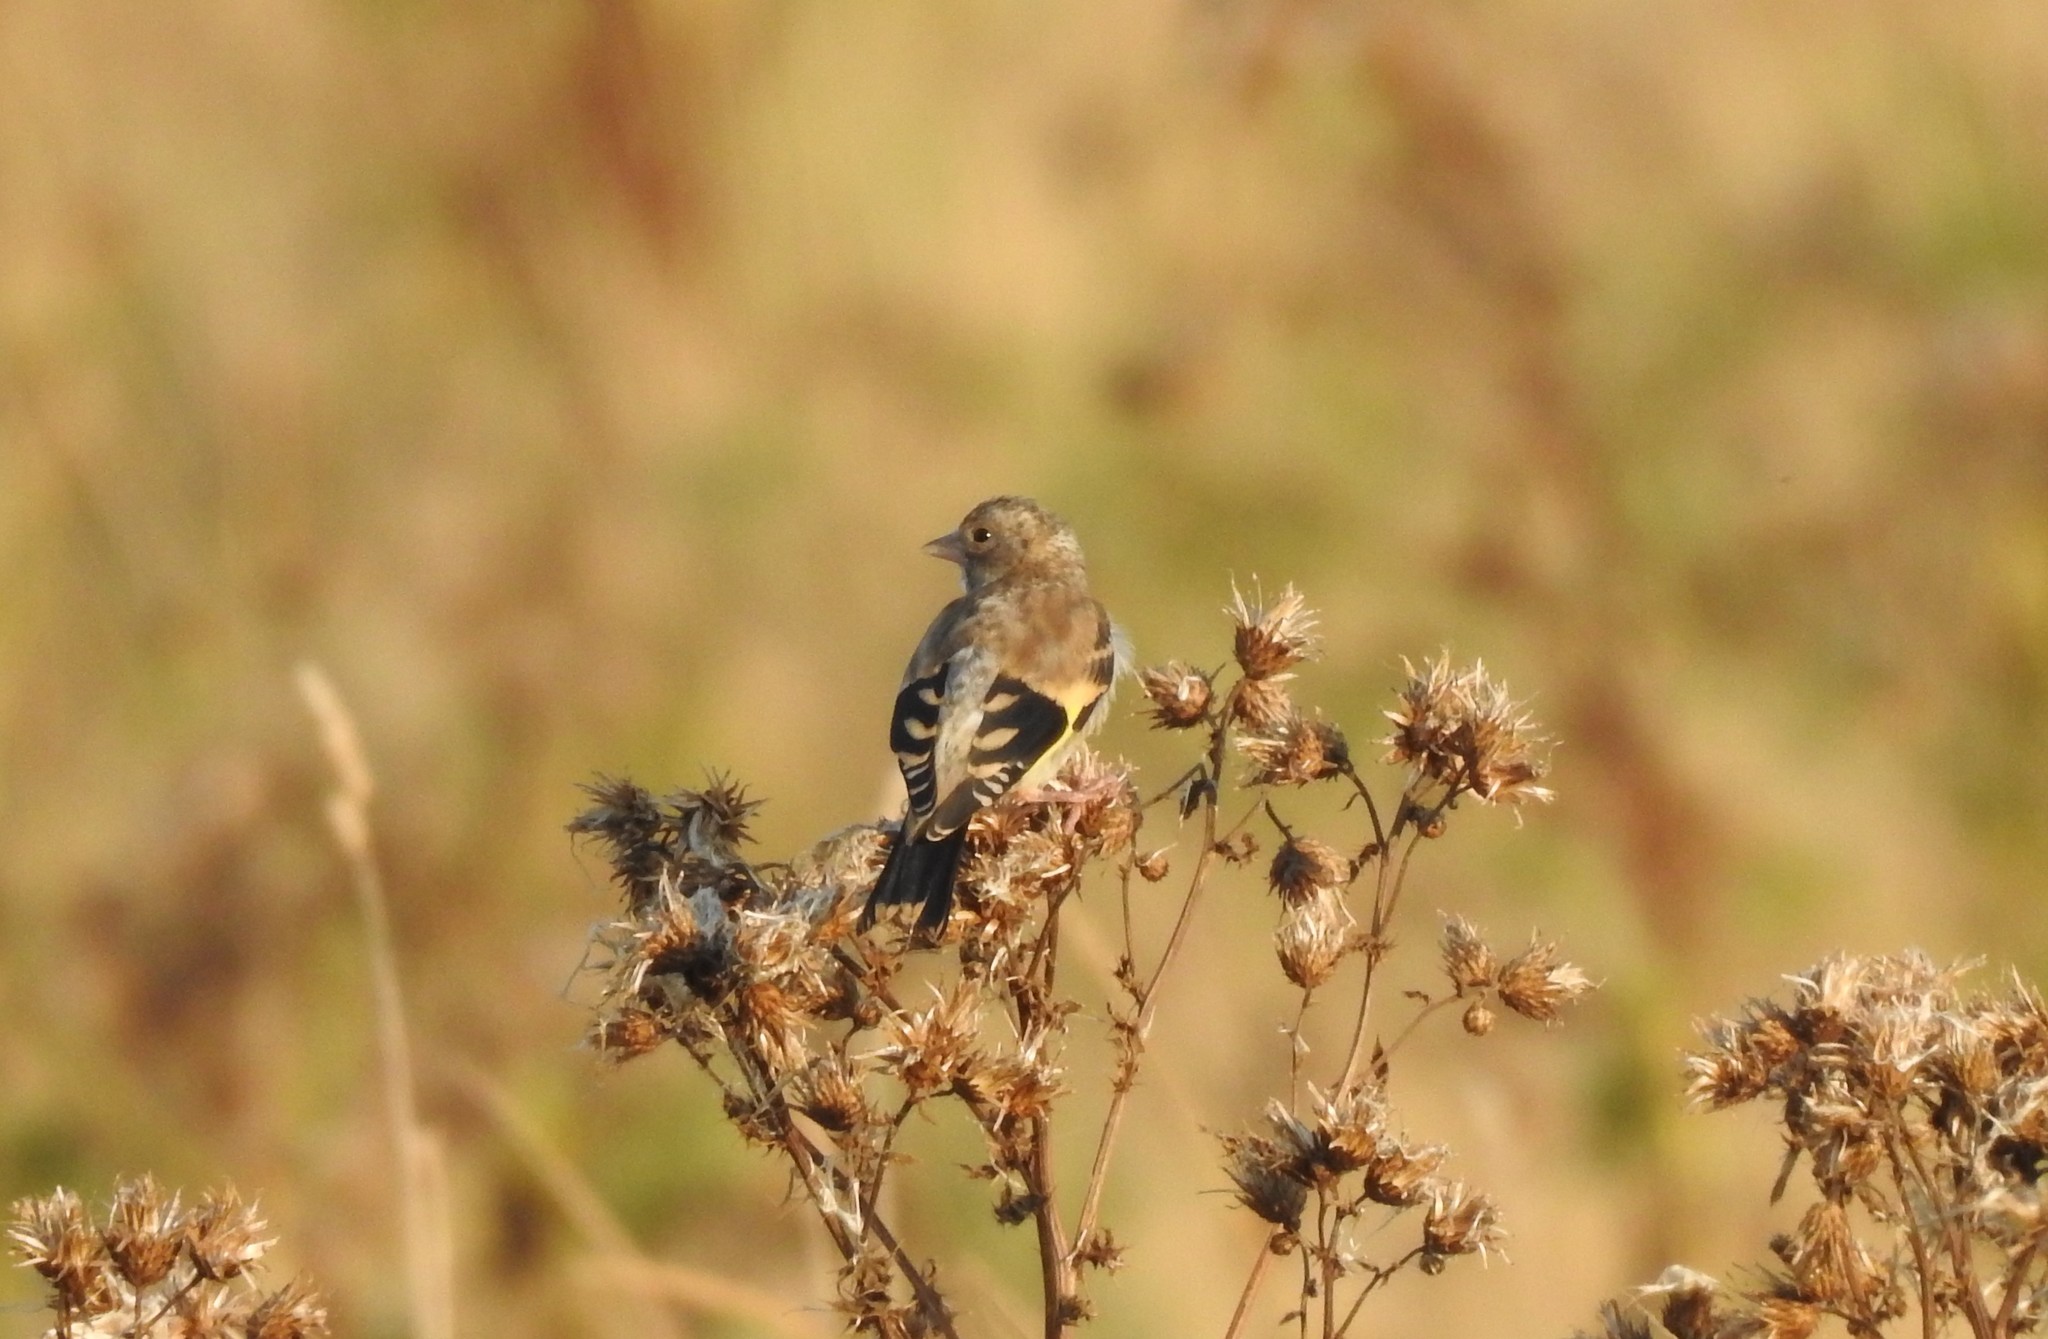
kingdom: Animalia
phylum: Chordata
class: Aves
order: Passeriformes
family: Fringillidae
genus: Carduelis
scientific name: Carduelis carduelis
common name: European goldfinch
